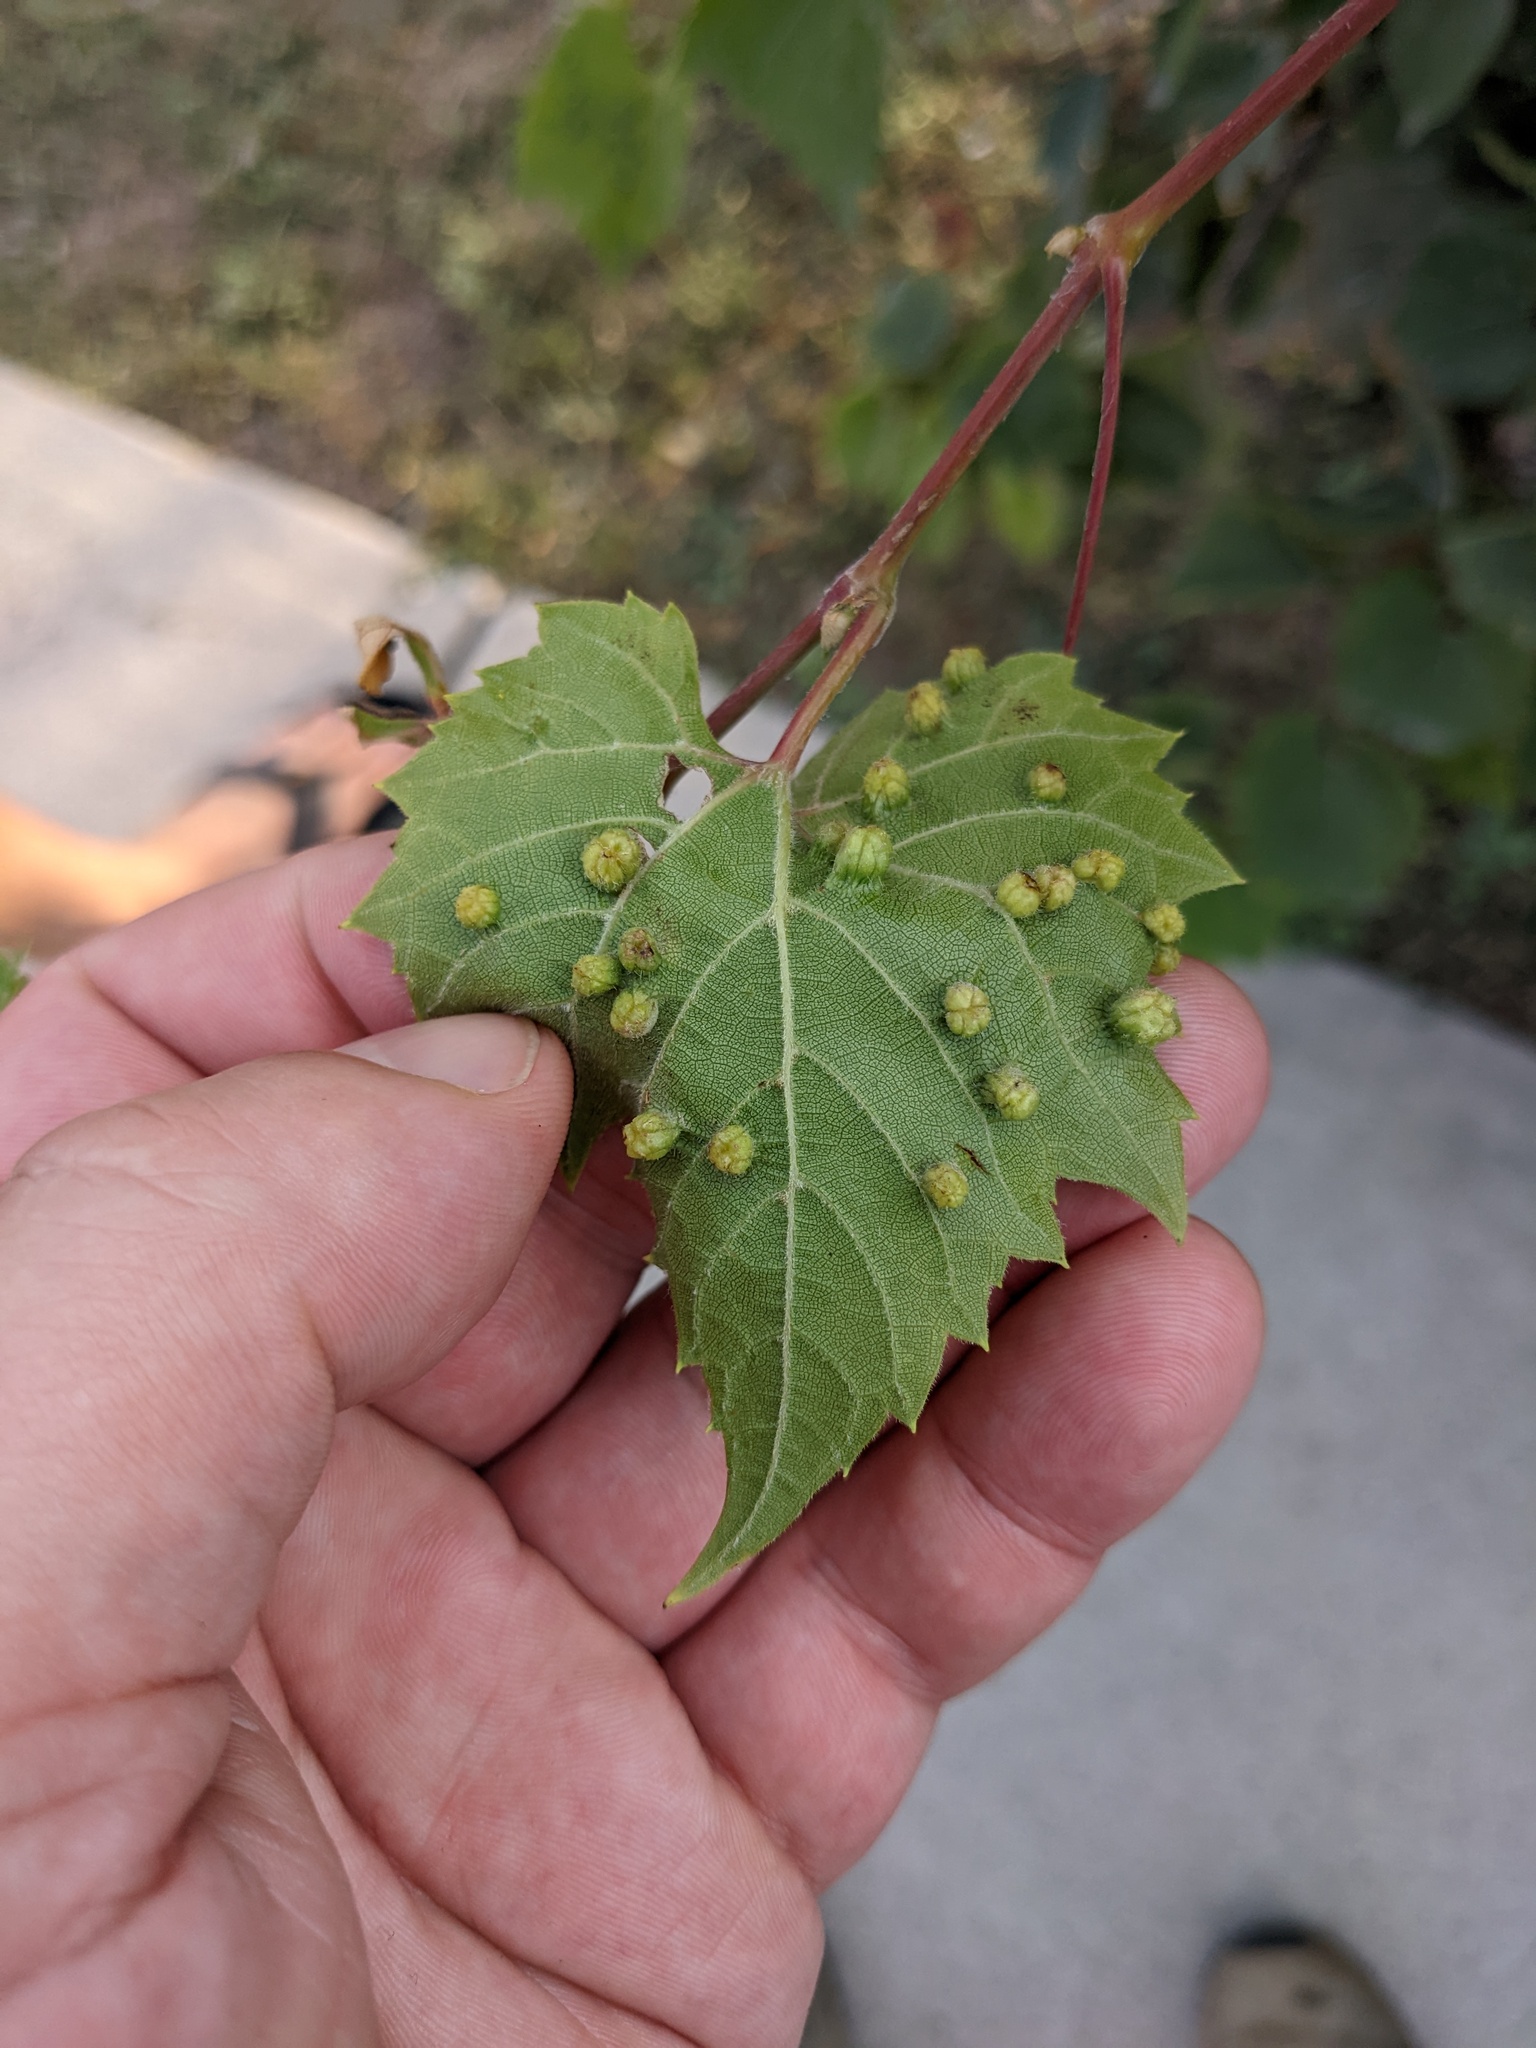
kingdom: Animalia
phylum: Arthropoda
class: Insecta
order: Hemiptera
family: Phylloxeridae
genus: Daktulosphaira
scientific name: Daktulosphaira vitifoliae
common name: Grape phylloxera
